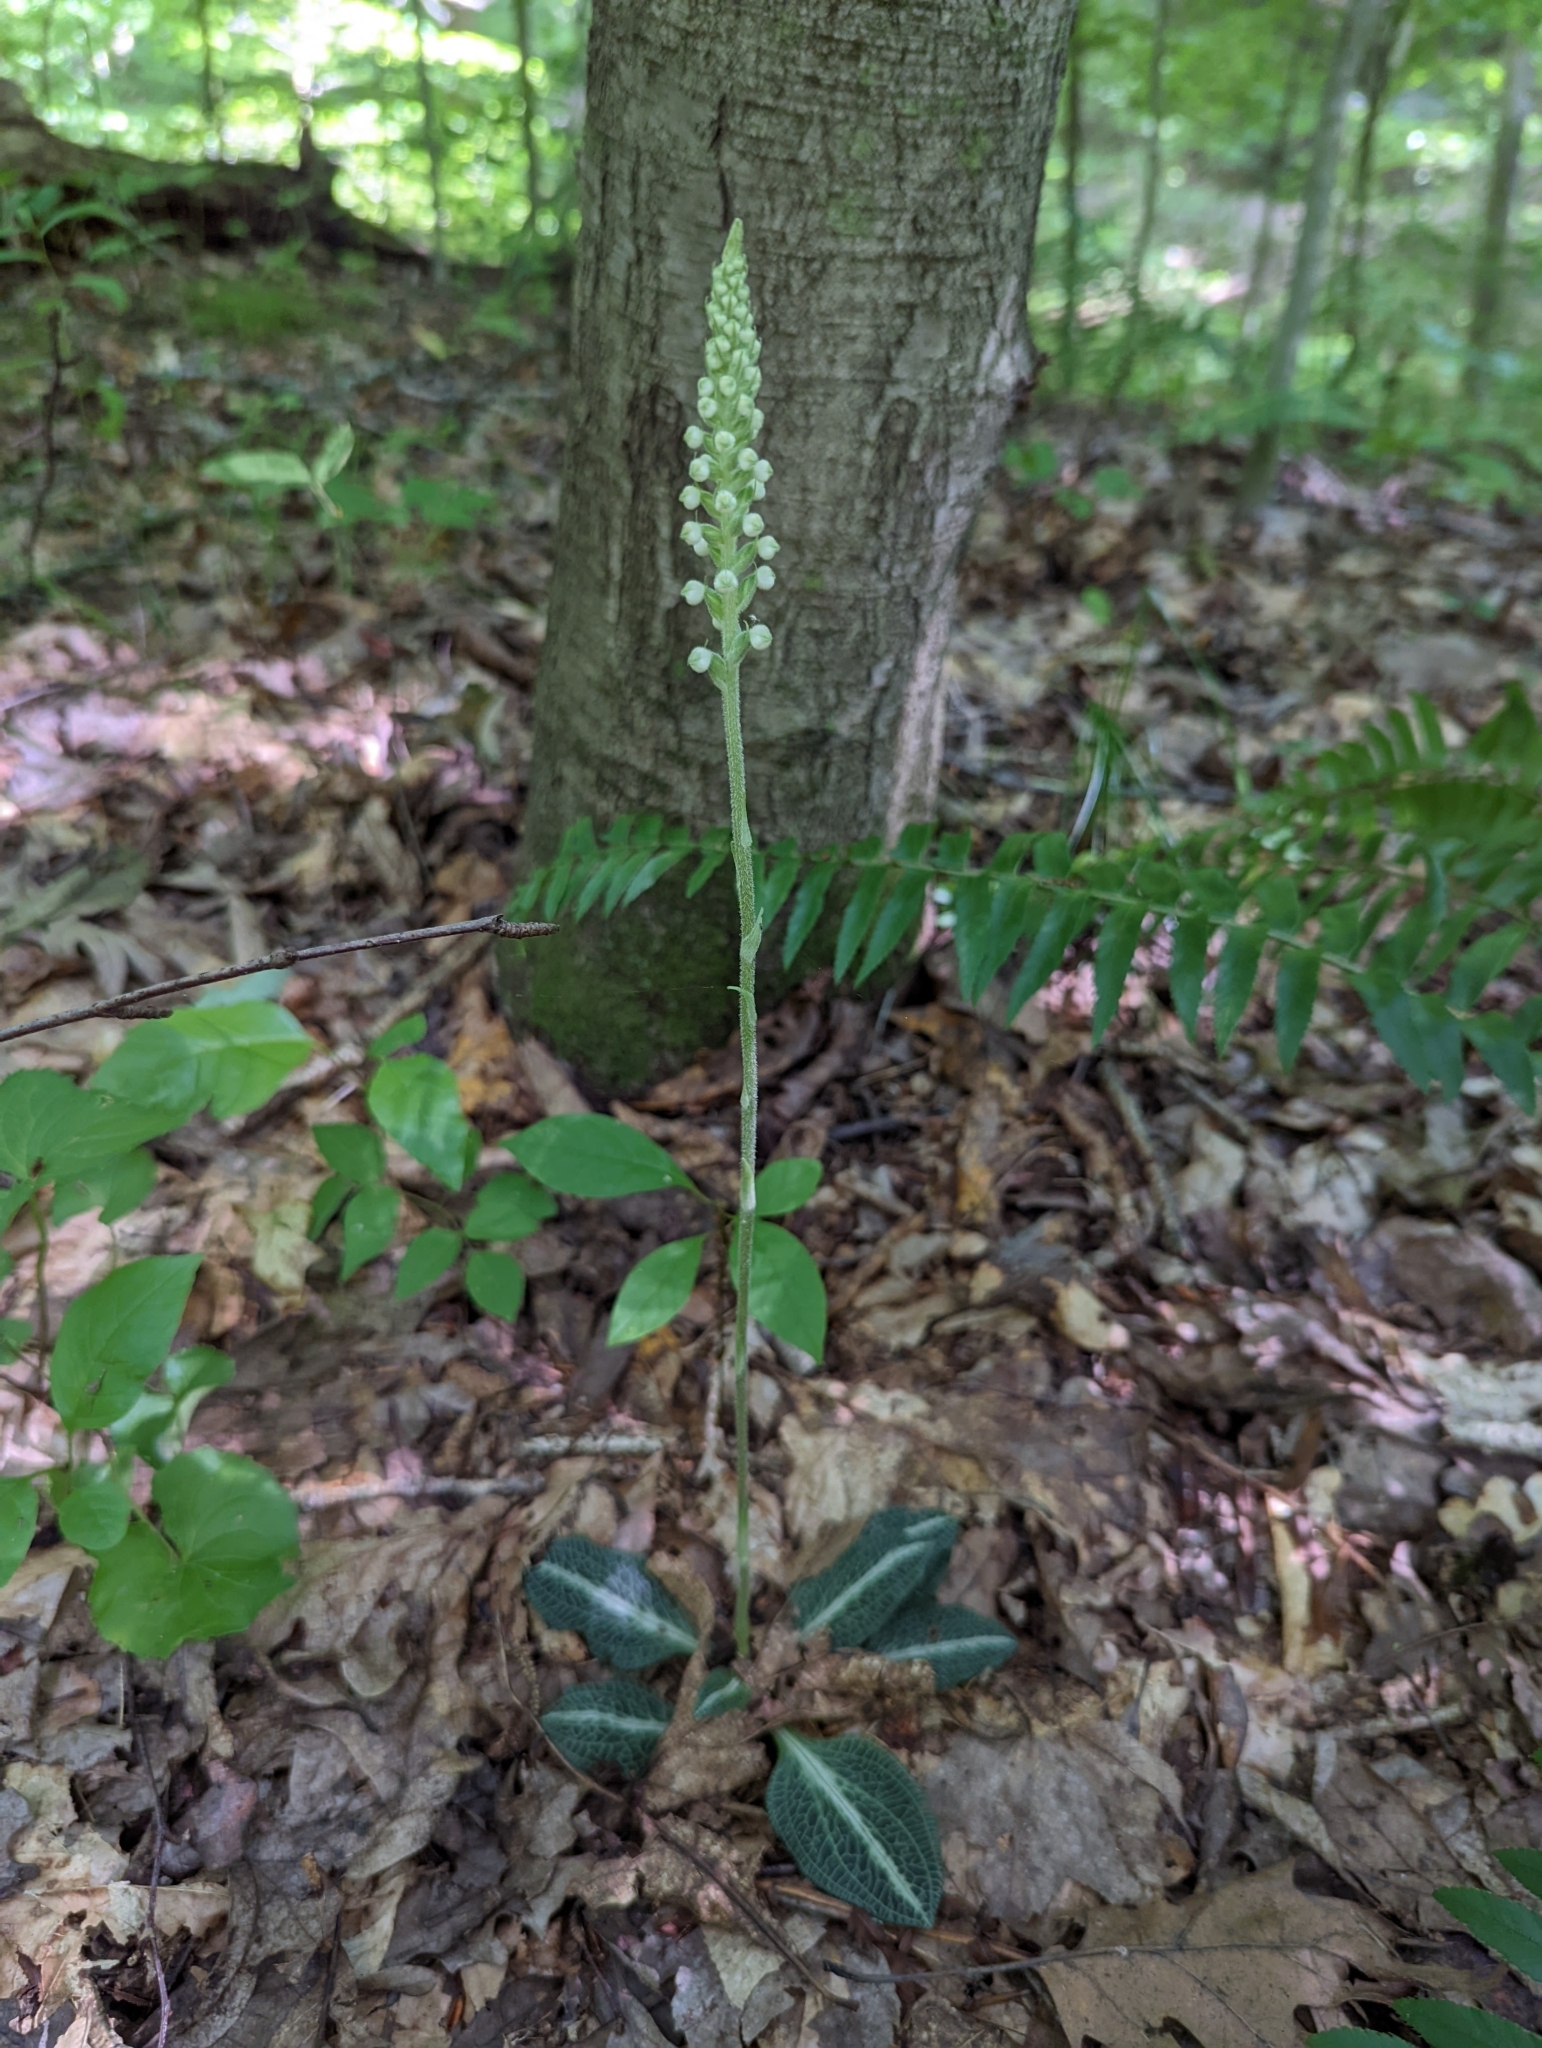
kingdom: Plantae
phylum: Tracheophyta
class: Liliopsida
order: Asparagales
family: Orchidaceae
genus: Goodyera
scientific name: Goodyera pubescens
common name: Downy rattlesnake-plantain
